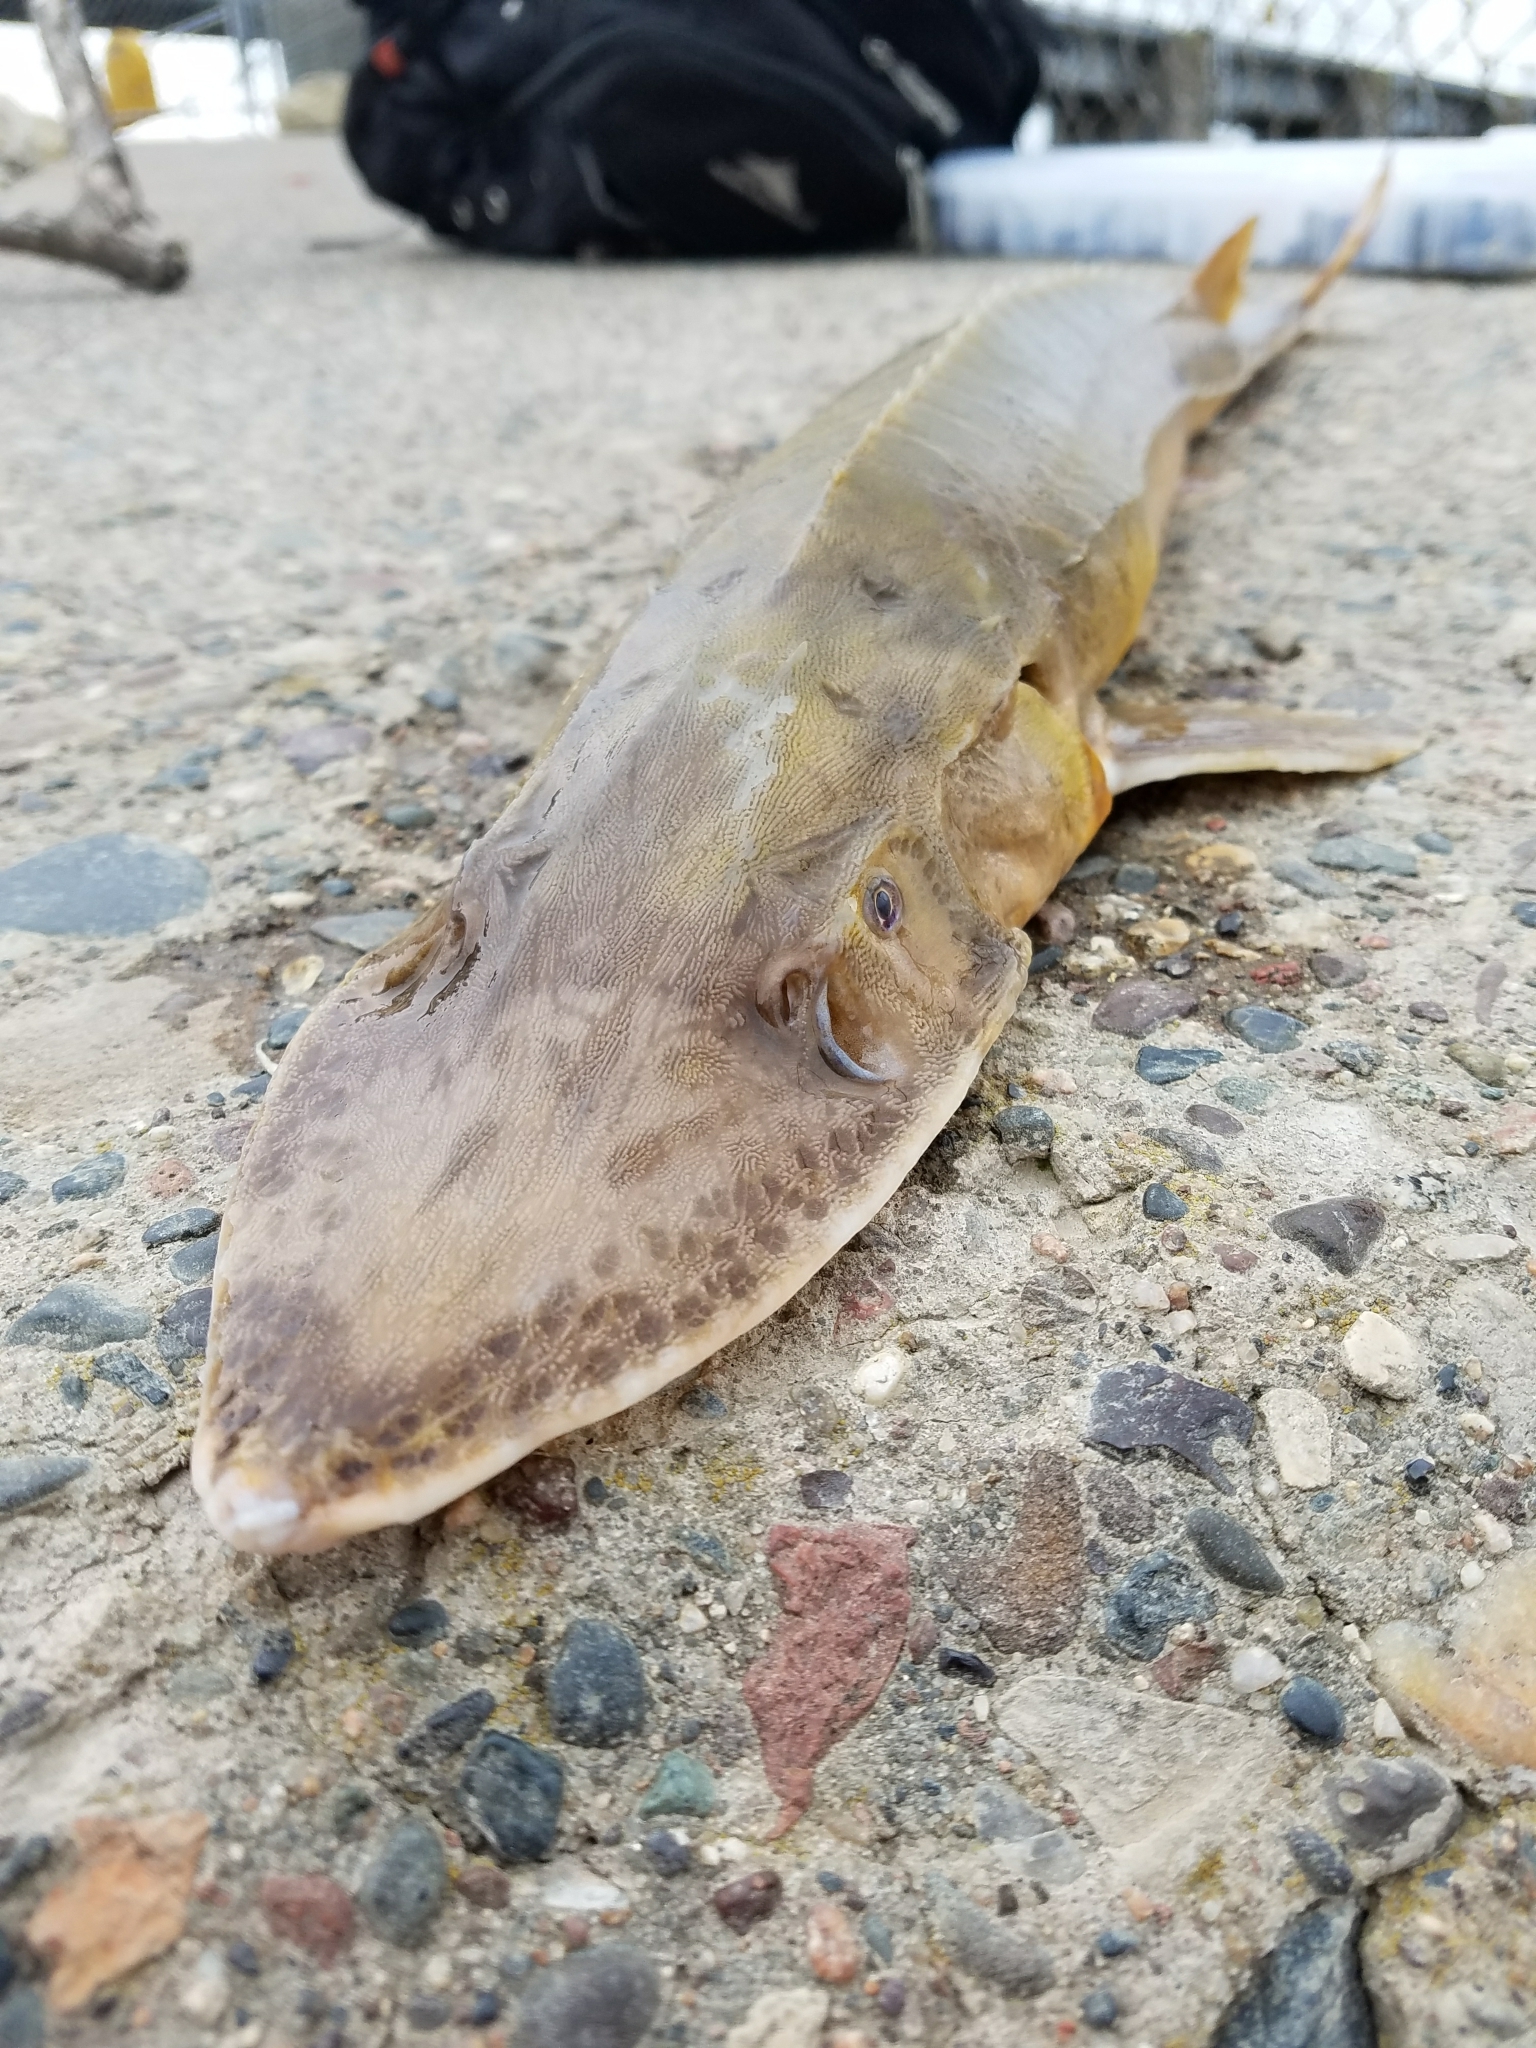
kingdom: Animalia
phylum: Chordata
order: Acipenseriformes
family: Acipenseridae
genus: Scaphirhynchus
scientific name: Scaphirhynchus platorynchus
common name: Shovelnose sturgeon
